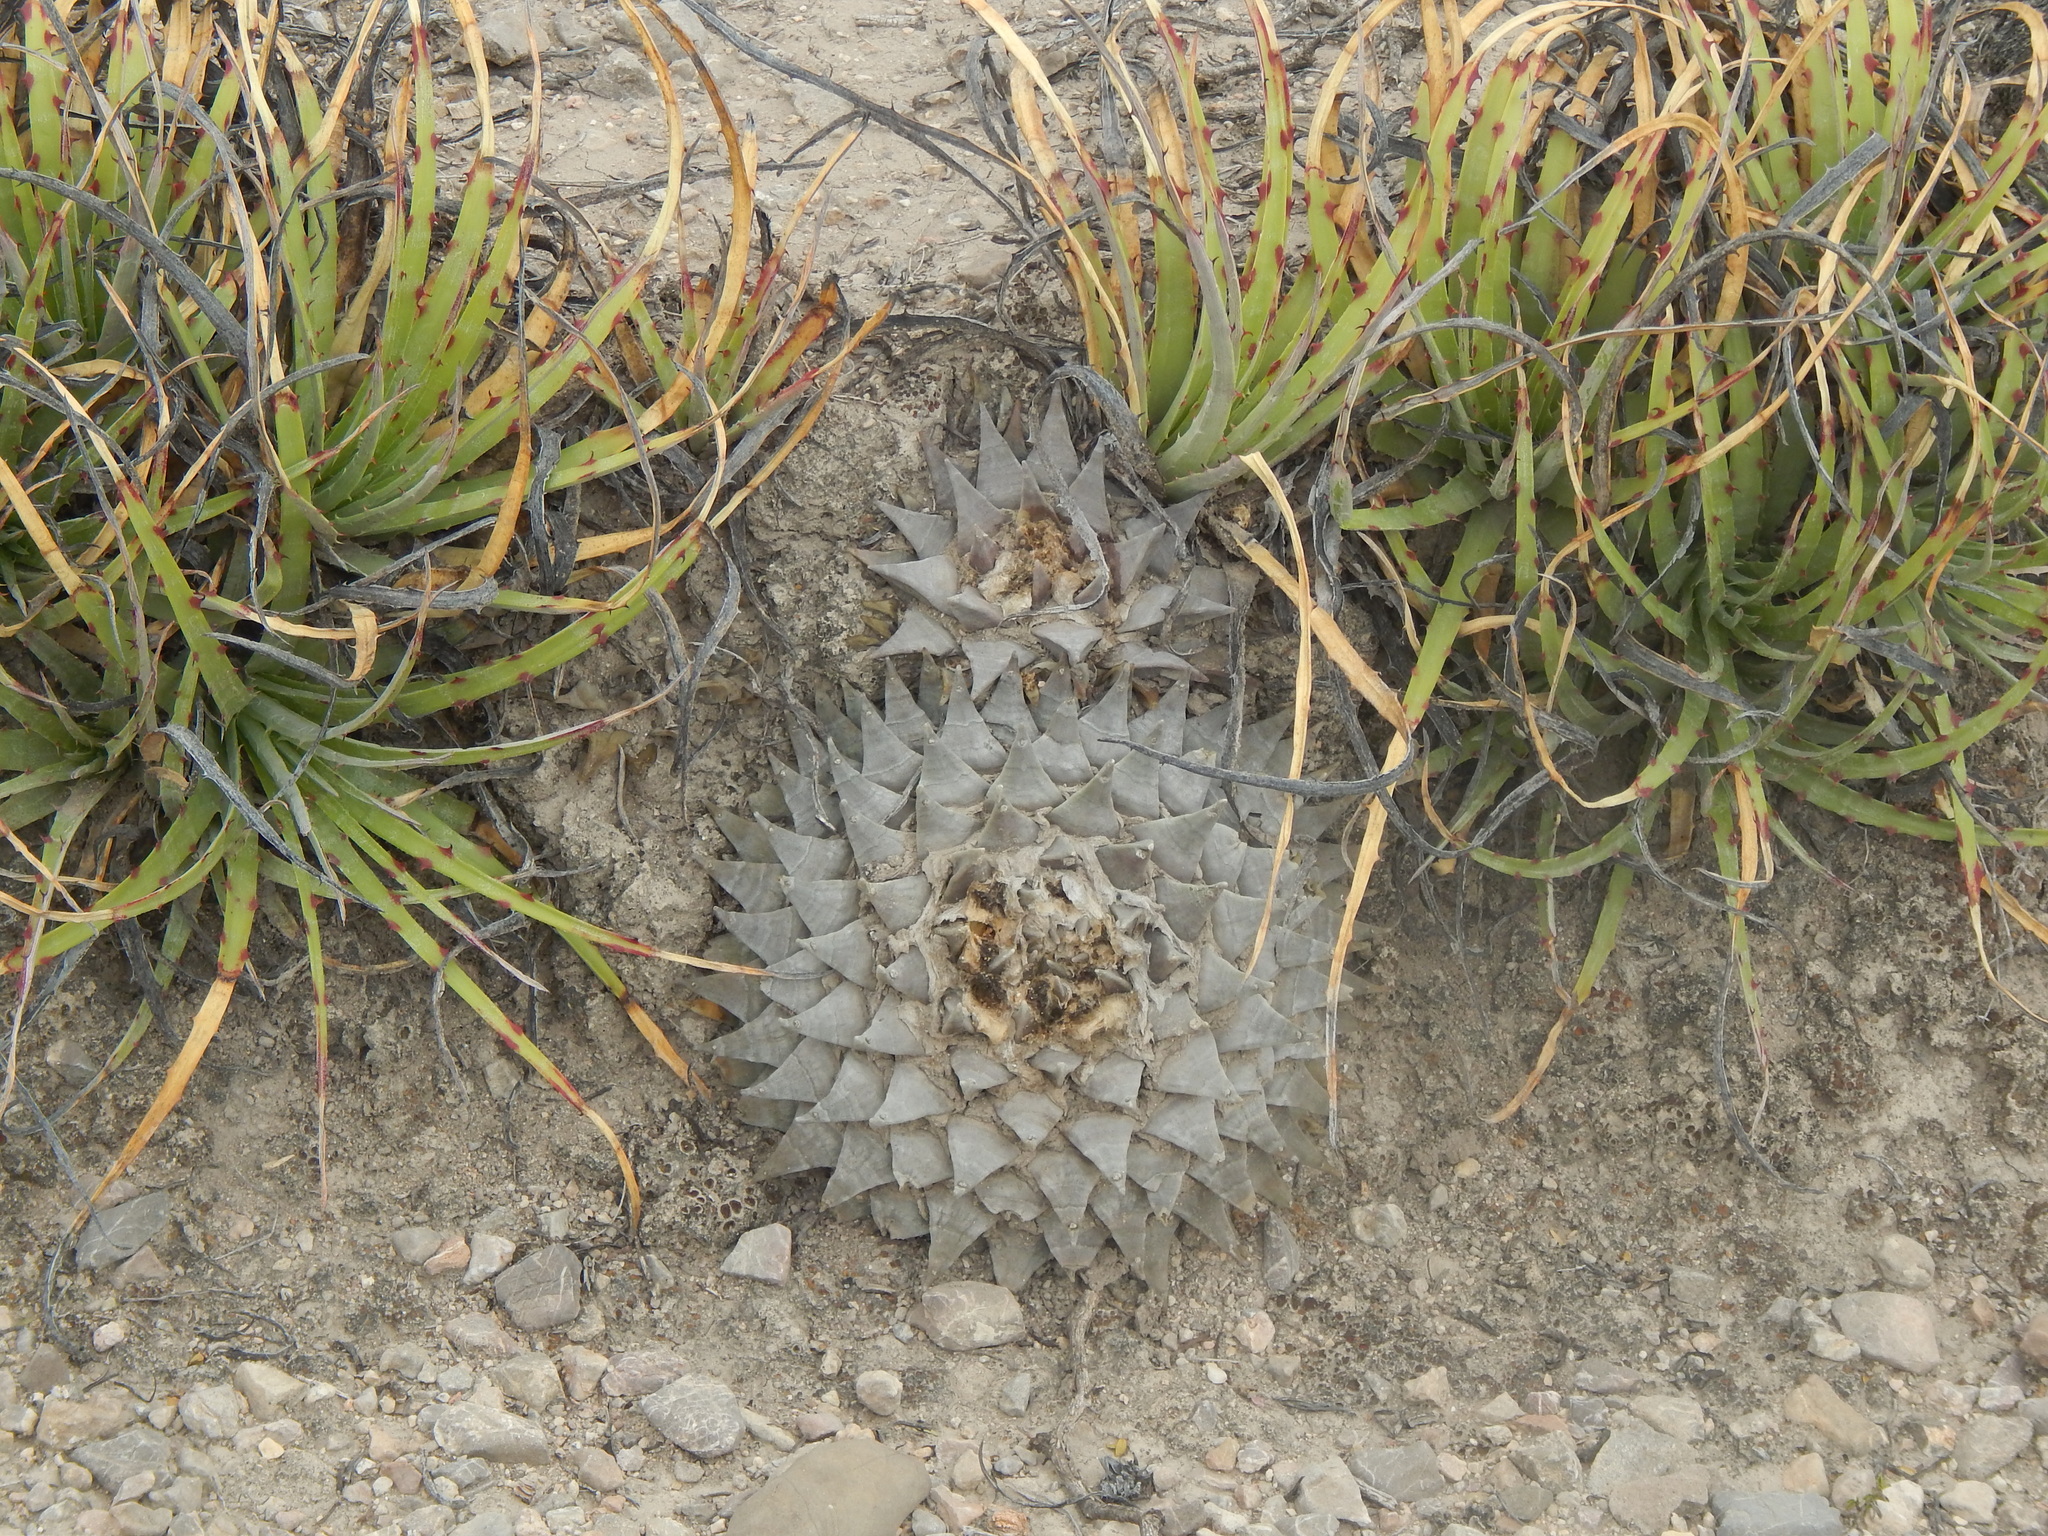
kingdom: Plantae
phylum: Tracheophyta
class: Magnoliopsida
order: Caryophyllales
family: Cactaceae
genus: Ariocarpus
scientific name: Ariocarpus retusus
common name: Seven stars
